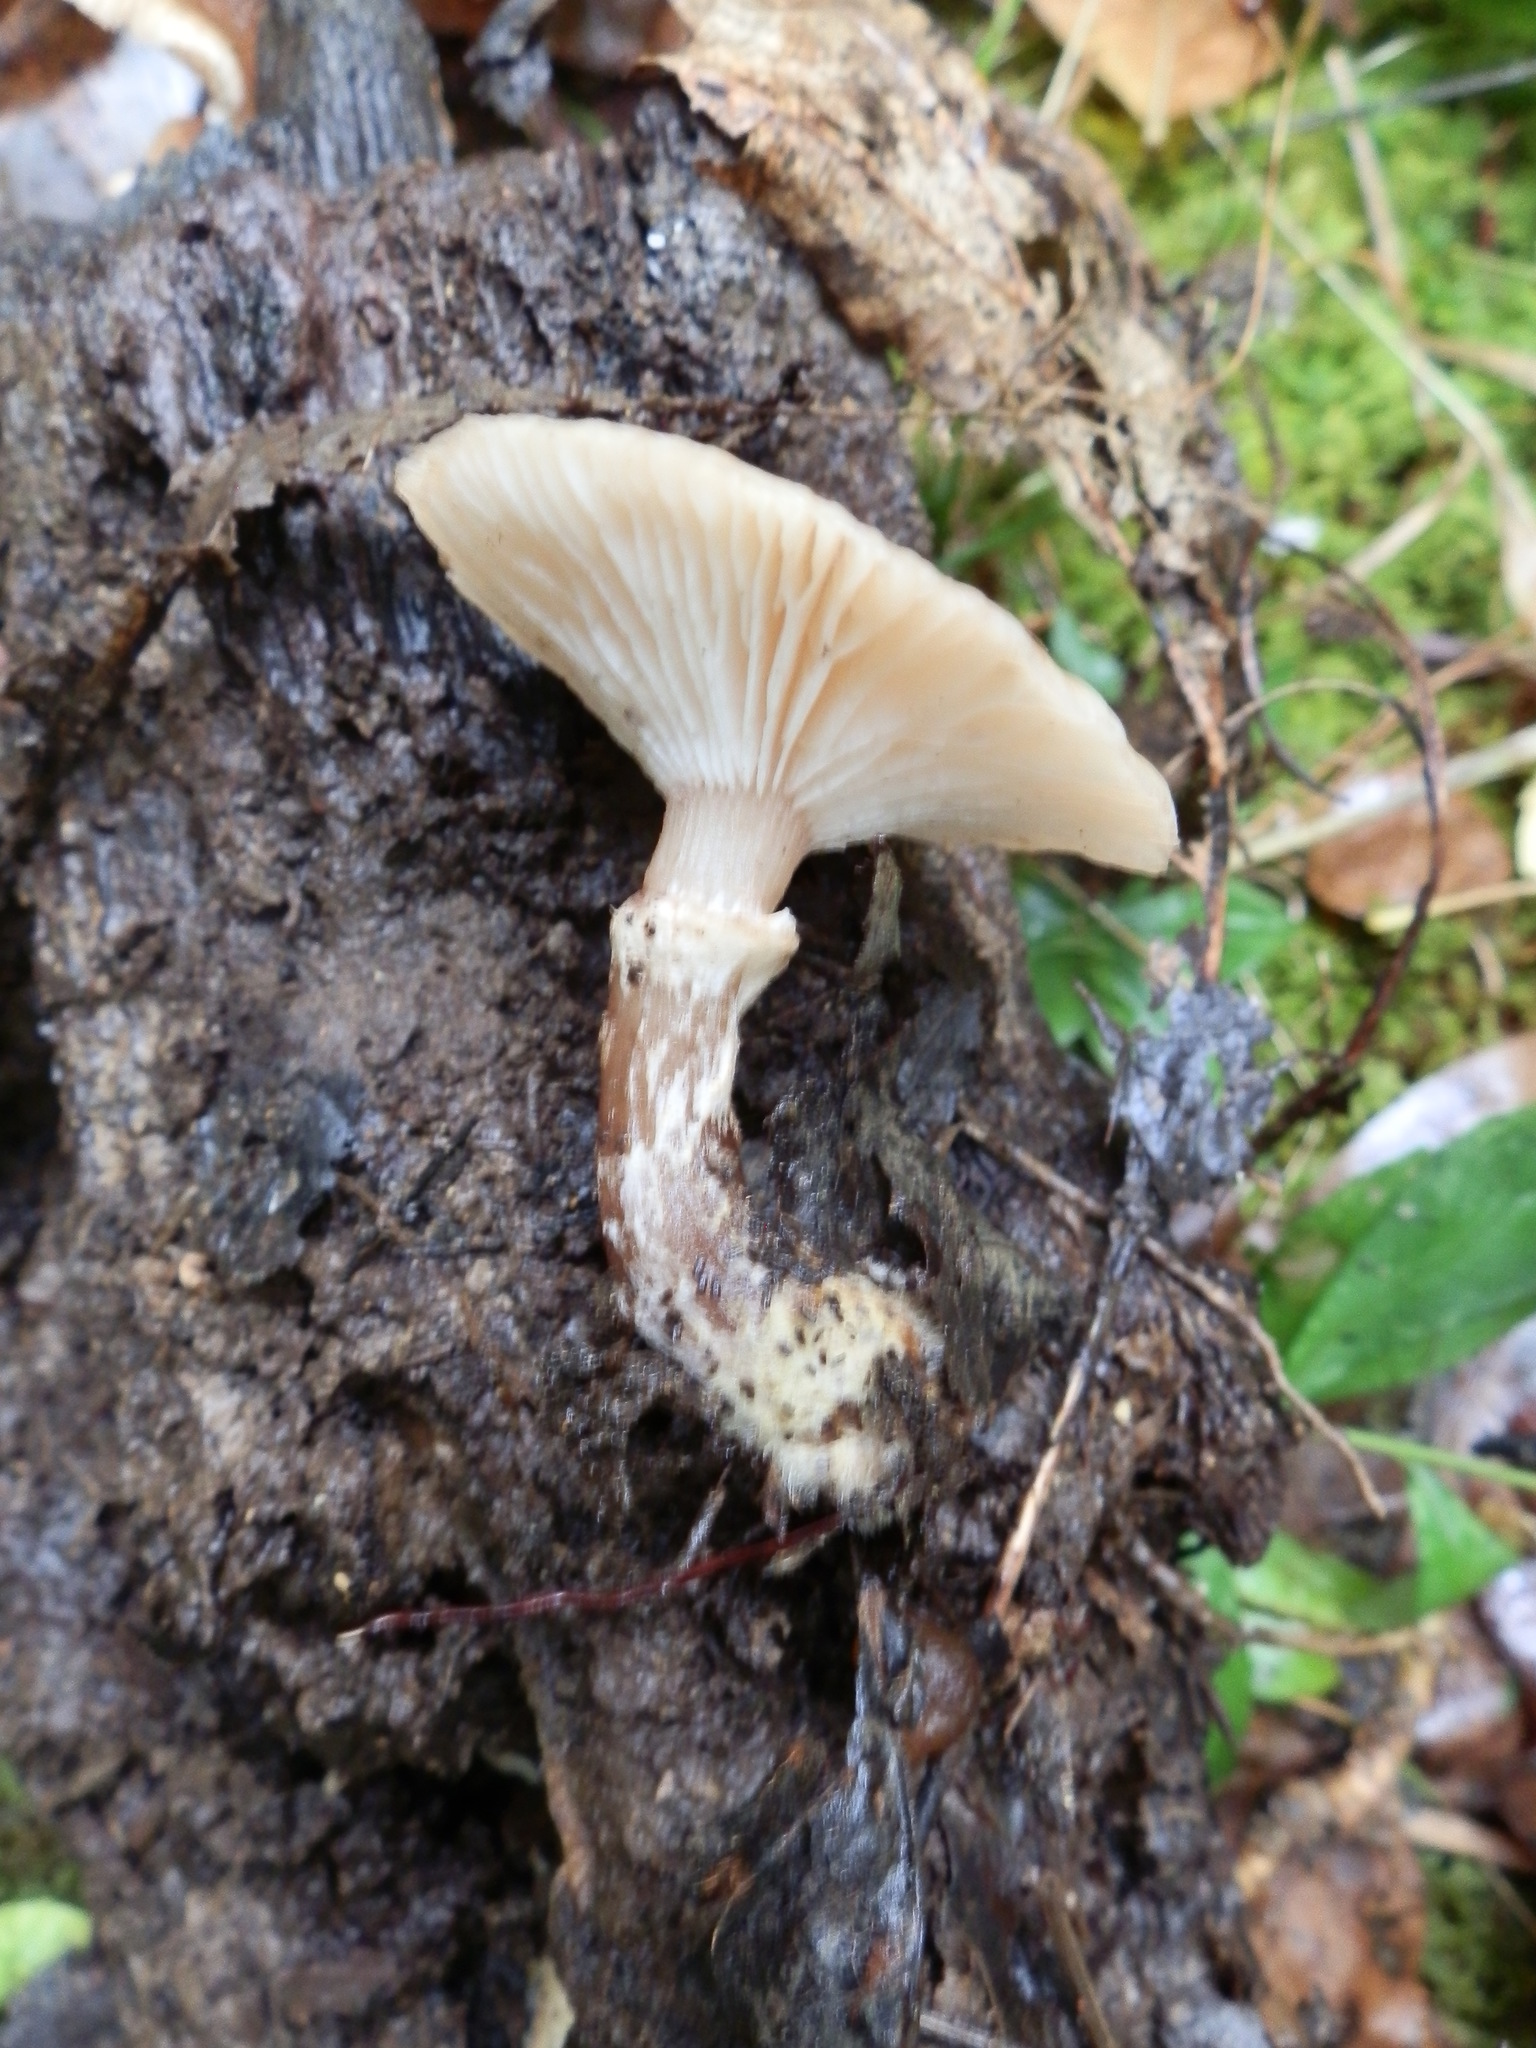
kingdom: Fungi
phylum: Basidiomycota
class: Agaricomycetes
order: Agaricales
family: Physalacriaceae
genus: Armillaria
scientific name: Armillaria gallica
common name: Bulbous honey fungus
